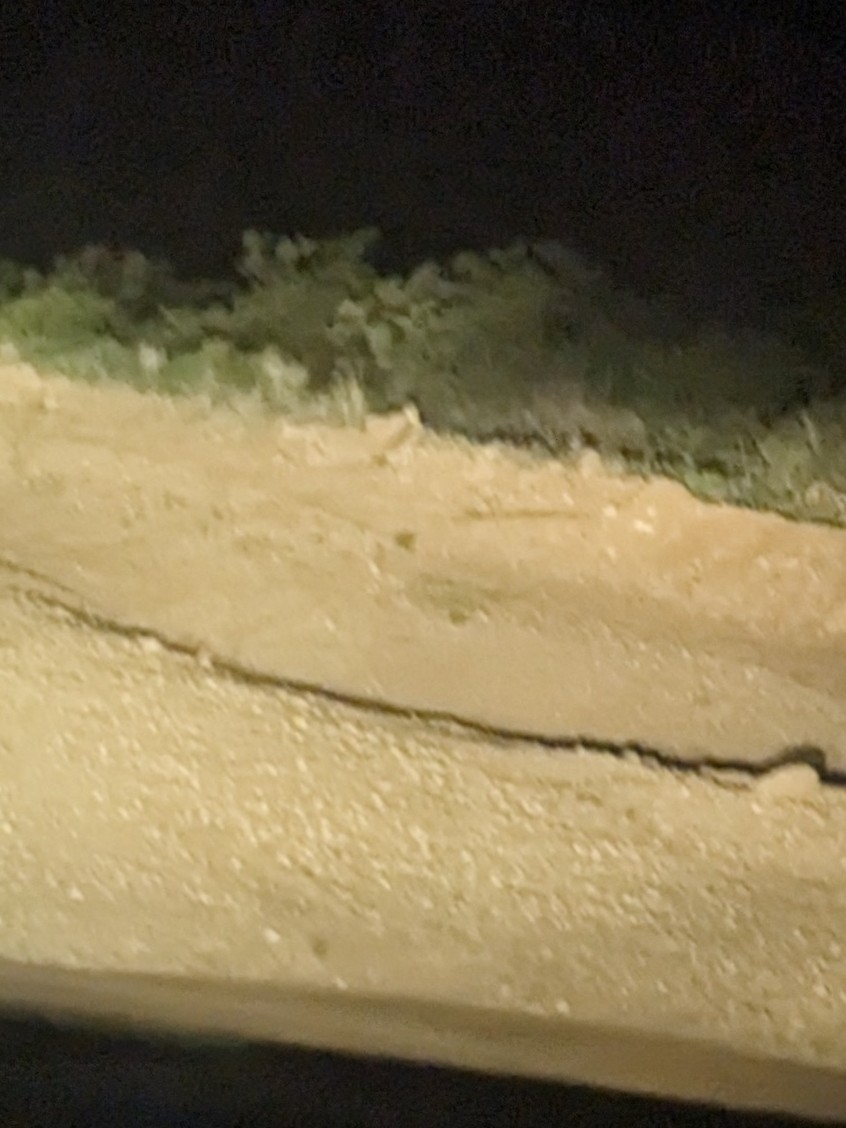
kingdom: Animalia
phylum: Chordata
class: Mammalia
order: Lagomorpha
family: Leporidae
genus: Lepus
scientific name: Lepus californicus
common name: Black-tailed jackrabbit
